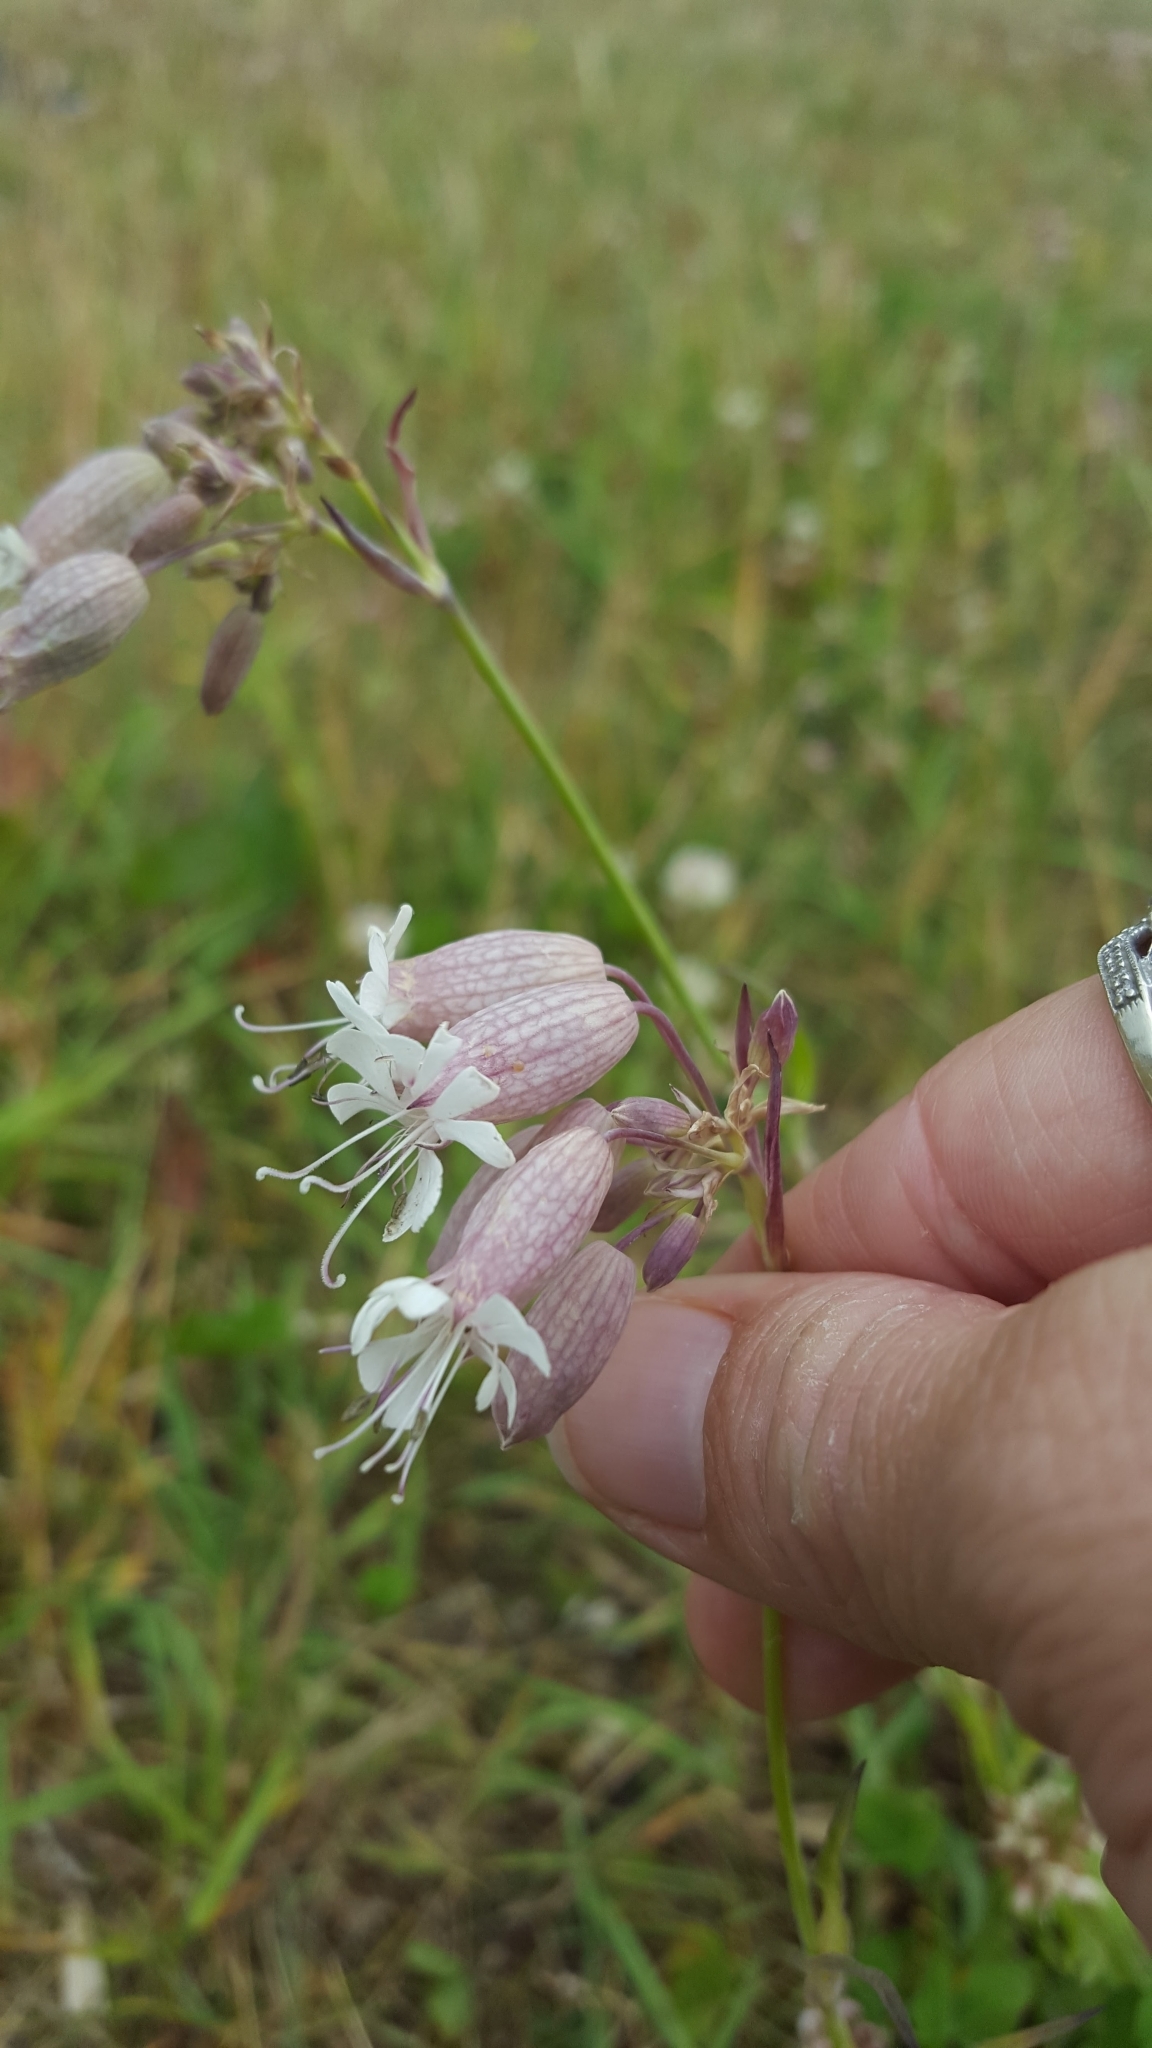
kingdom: Plantae
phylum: Tracheophyta
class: Magnoliopsida
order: Caryophyllales
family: Caryophyllaceae
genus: Silene
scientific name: Silene vulgaris
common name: Bladder campion
